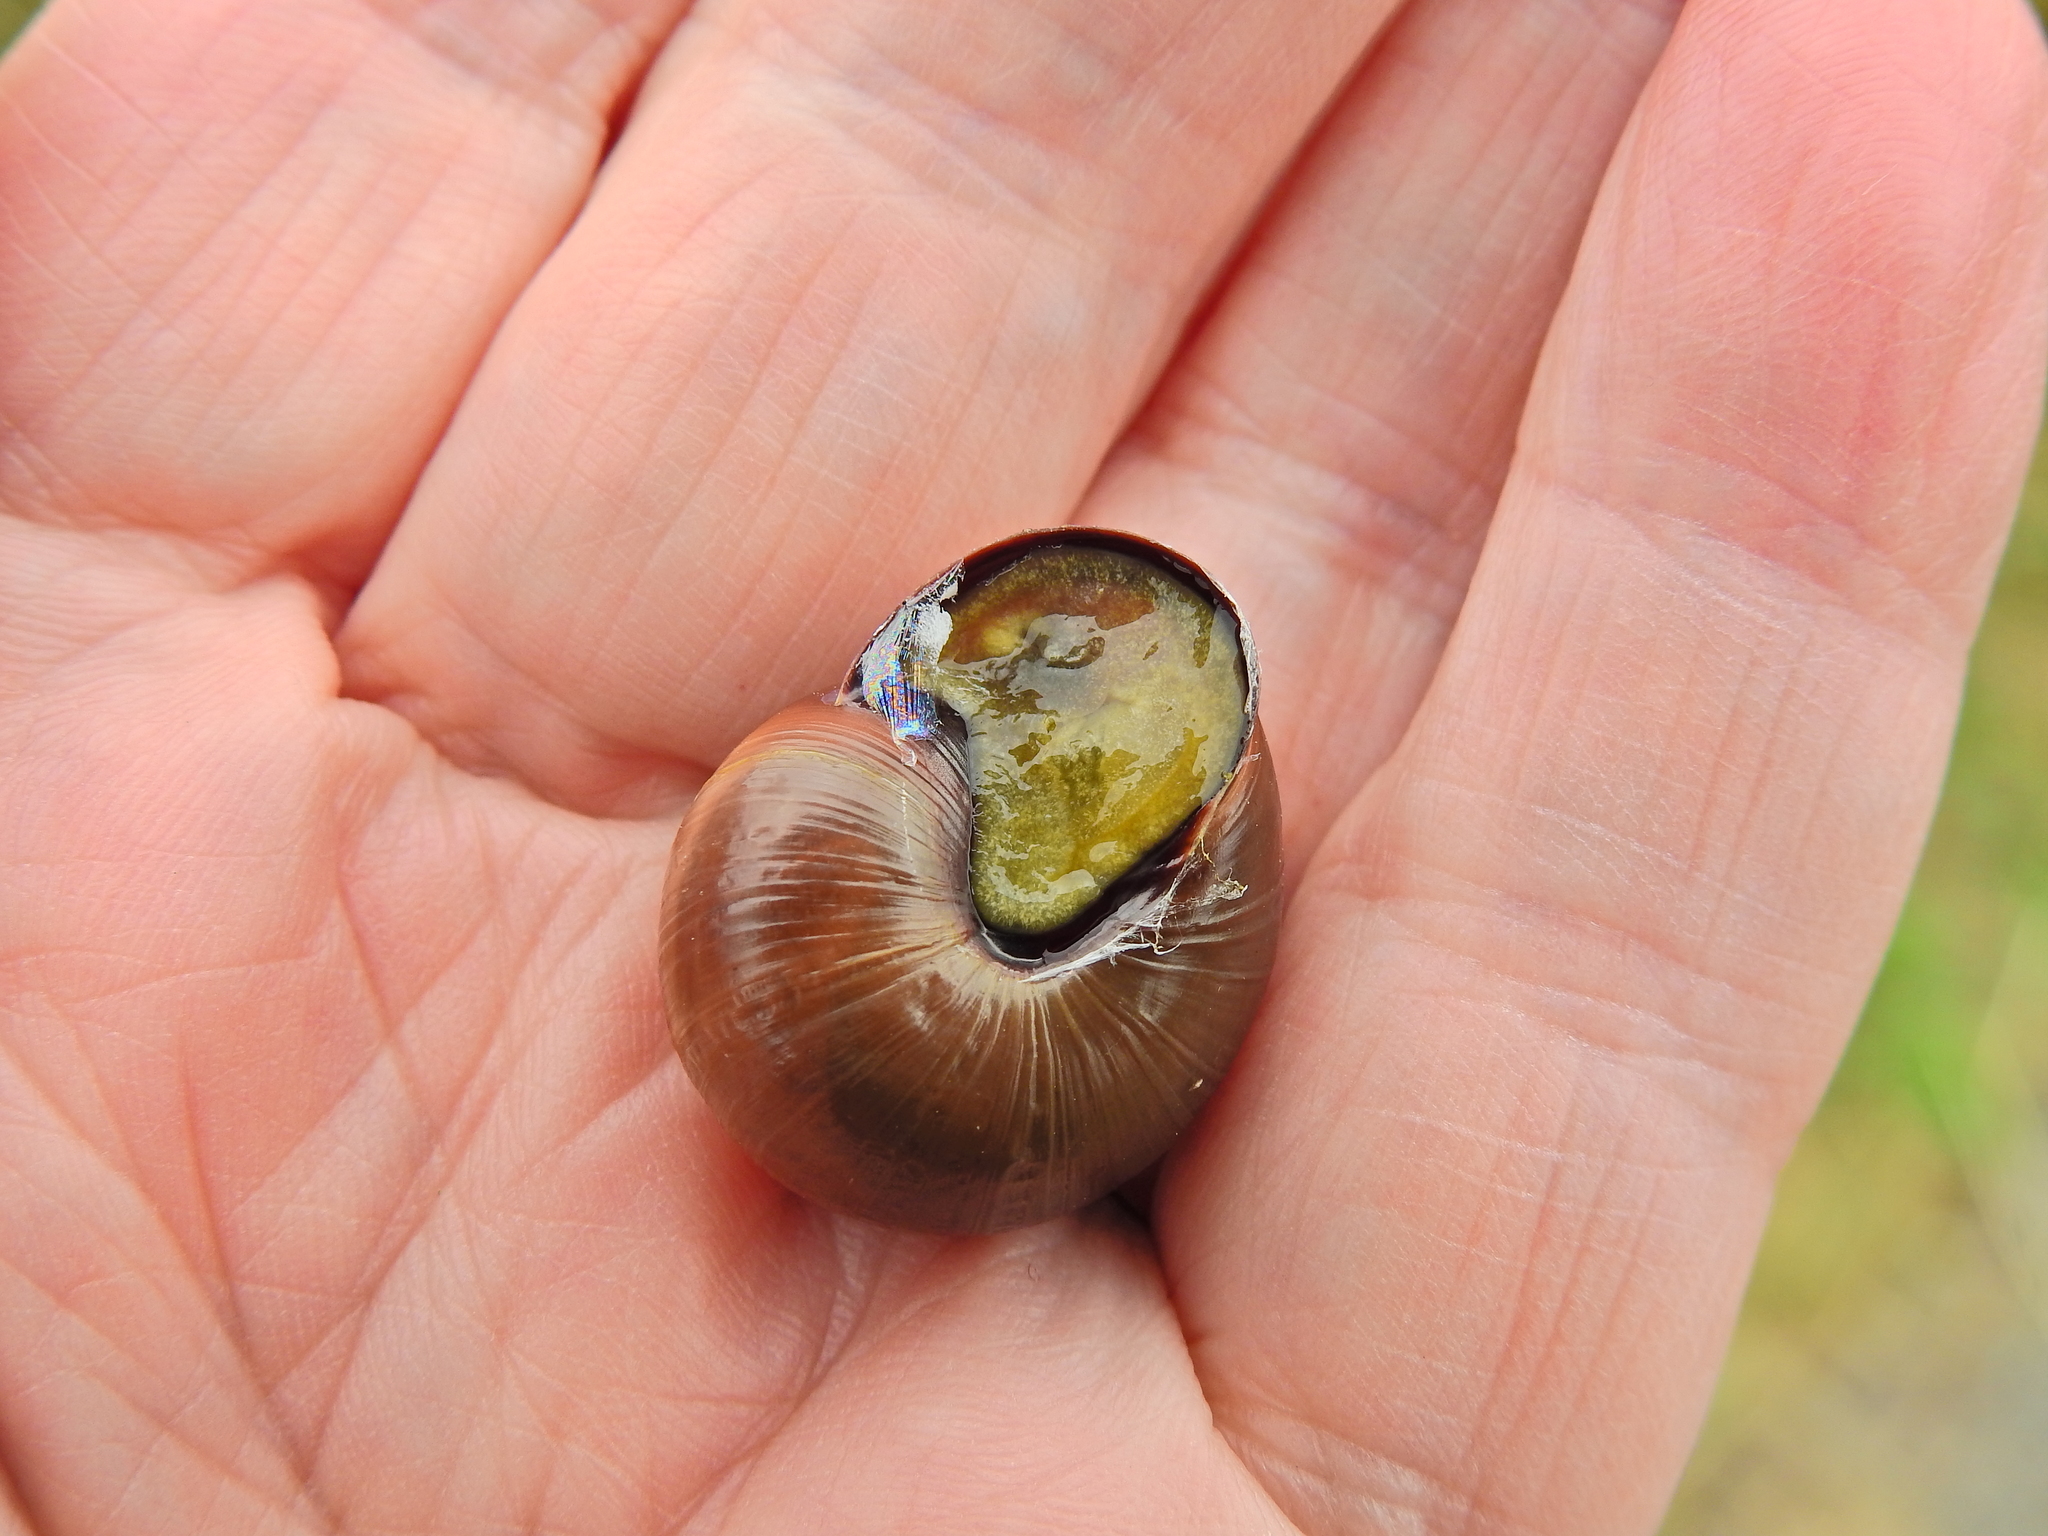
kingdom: Animalia
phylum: Mollusca
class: Gastropoda
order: Stylommatophora
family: Helicidae
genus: Cepaea
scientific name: Cepaea nemoralis
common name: Grovesnail
